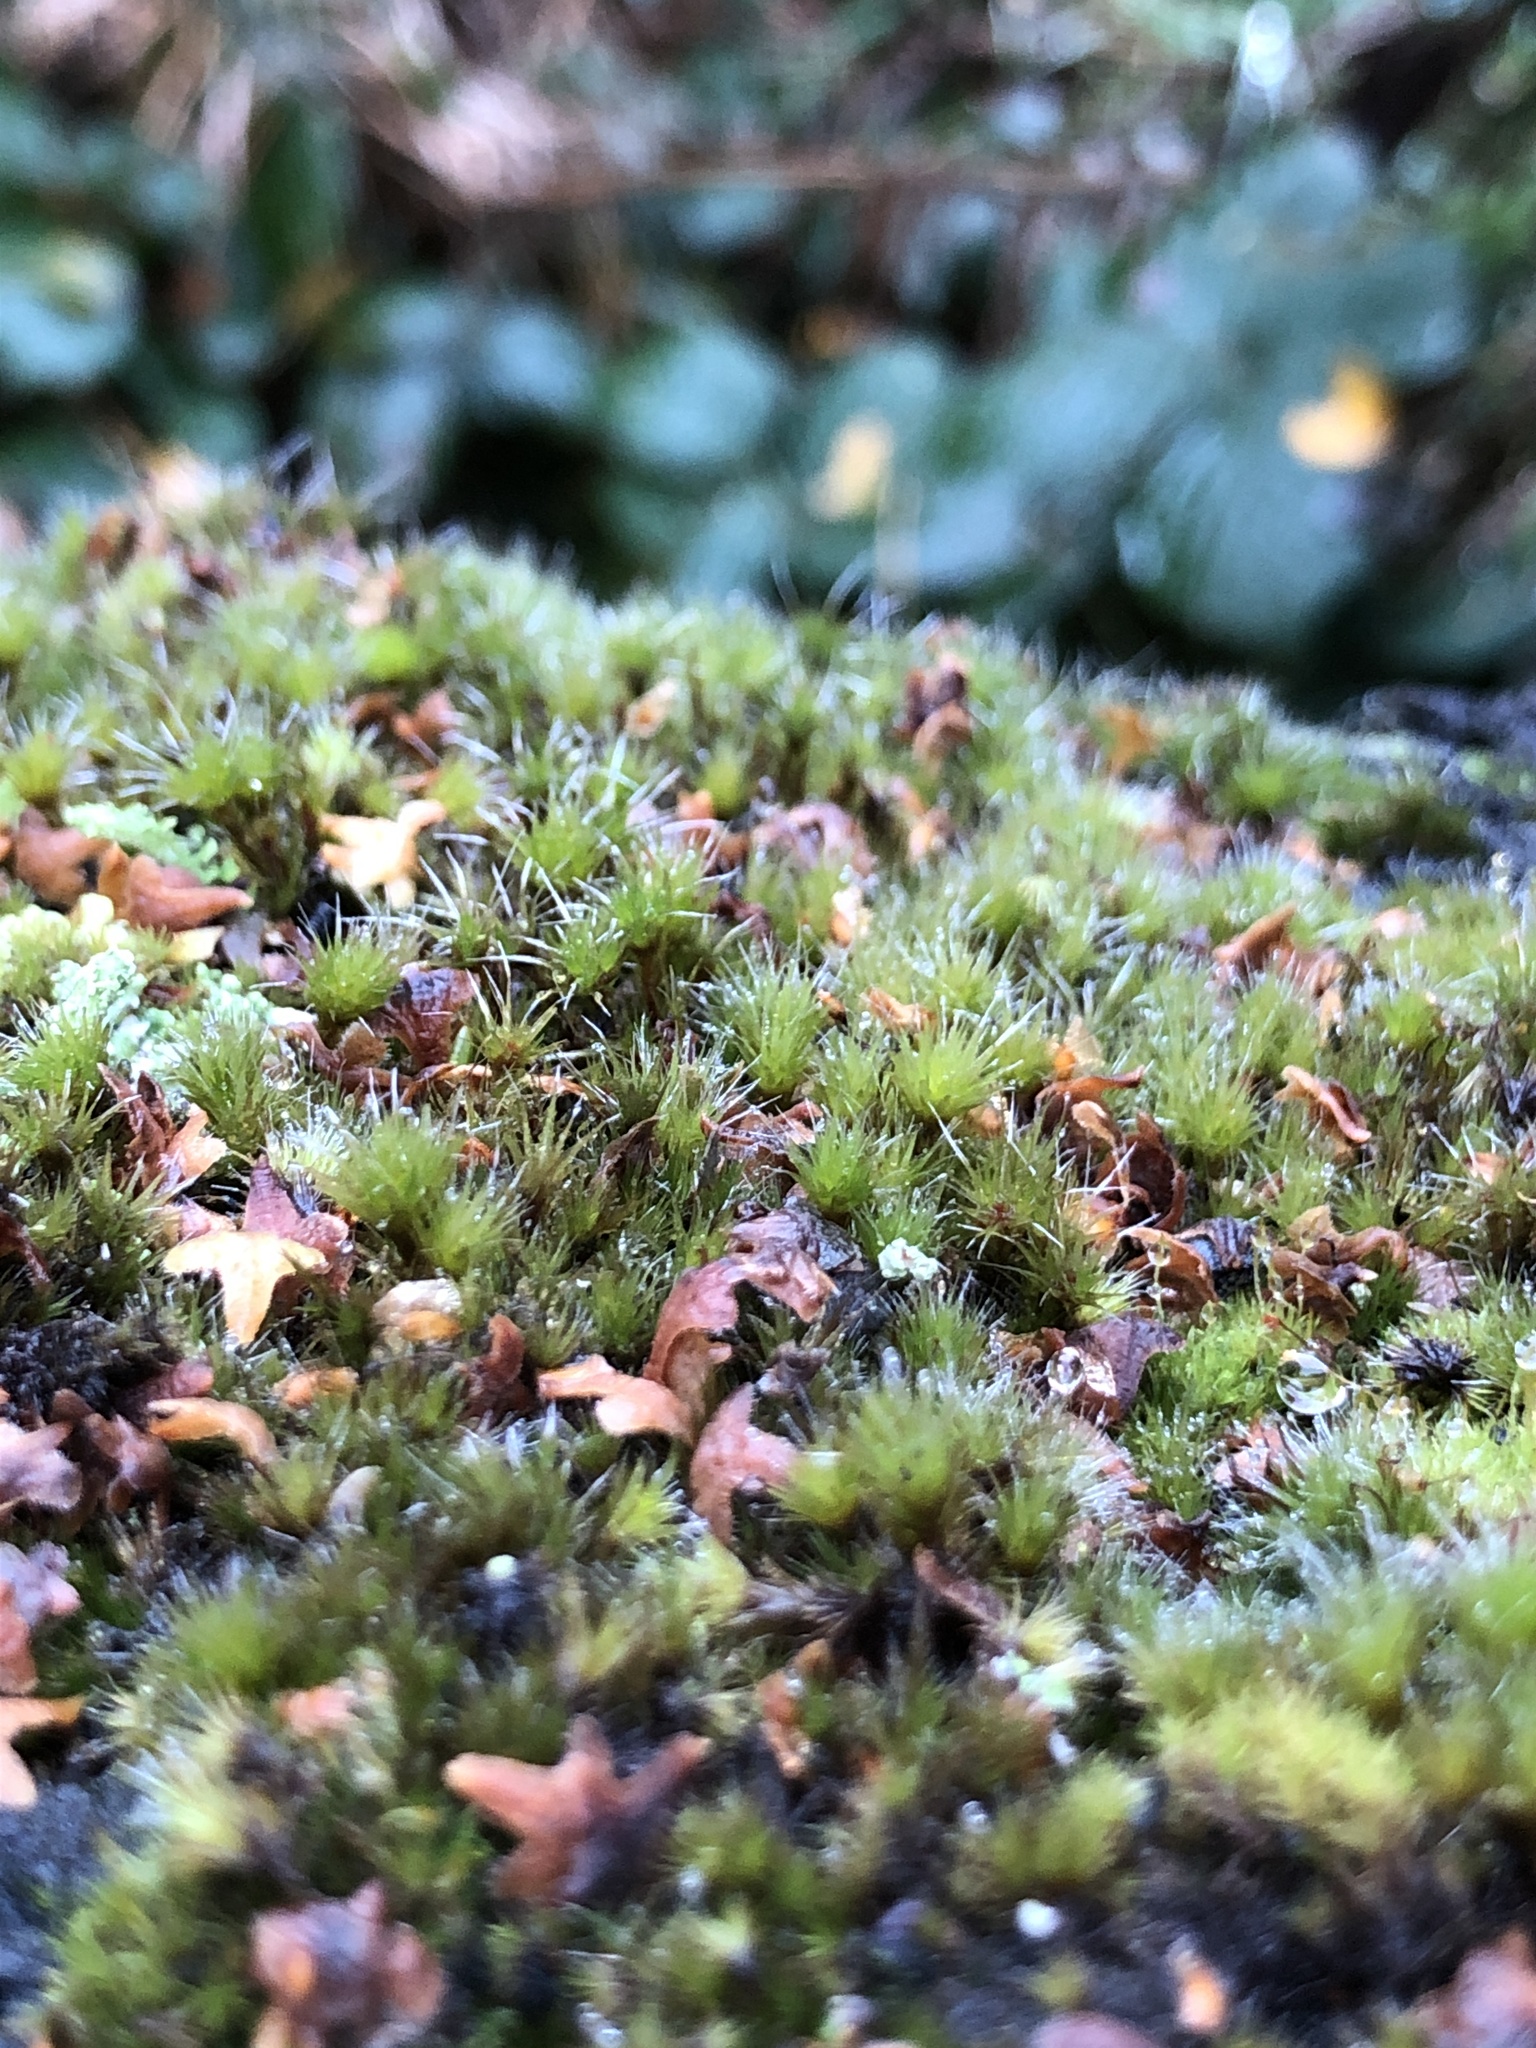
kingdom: Plantae
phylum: Bryophyta
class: Bryopsida
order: Dicranales
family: Leucobryaceae
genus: Campylopus
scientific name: Campylopus introflexus
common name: Heath star moss
